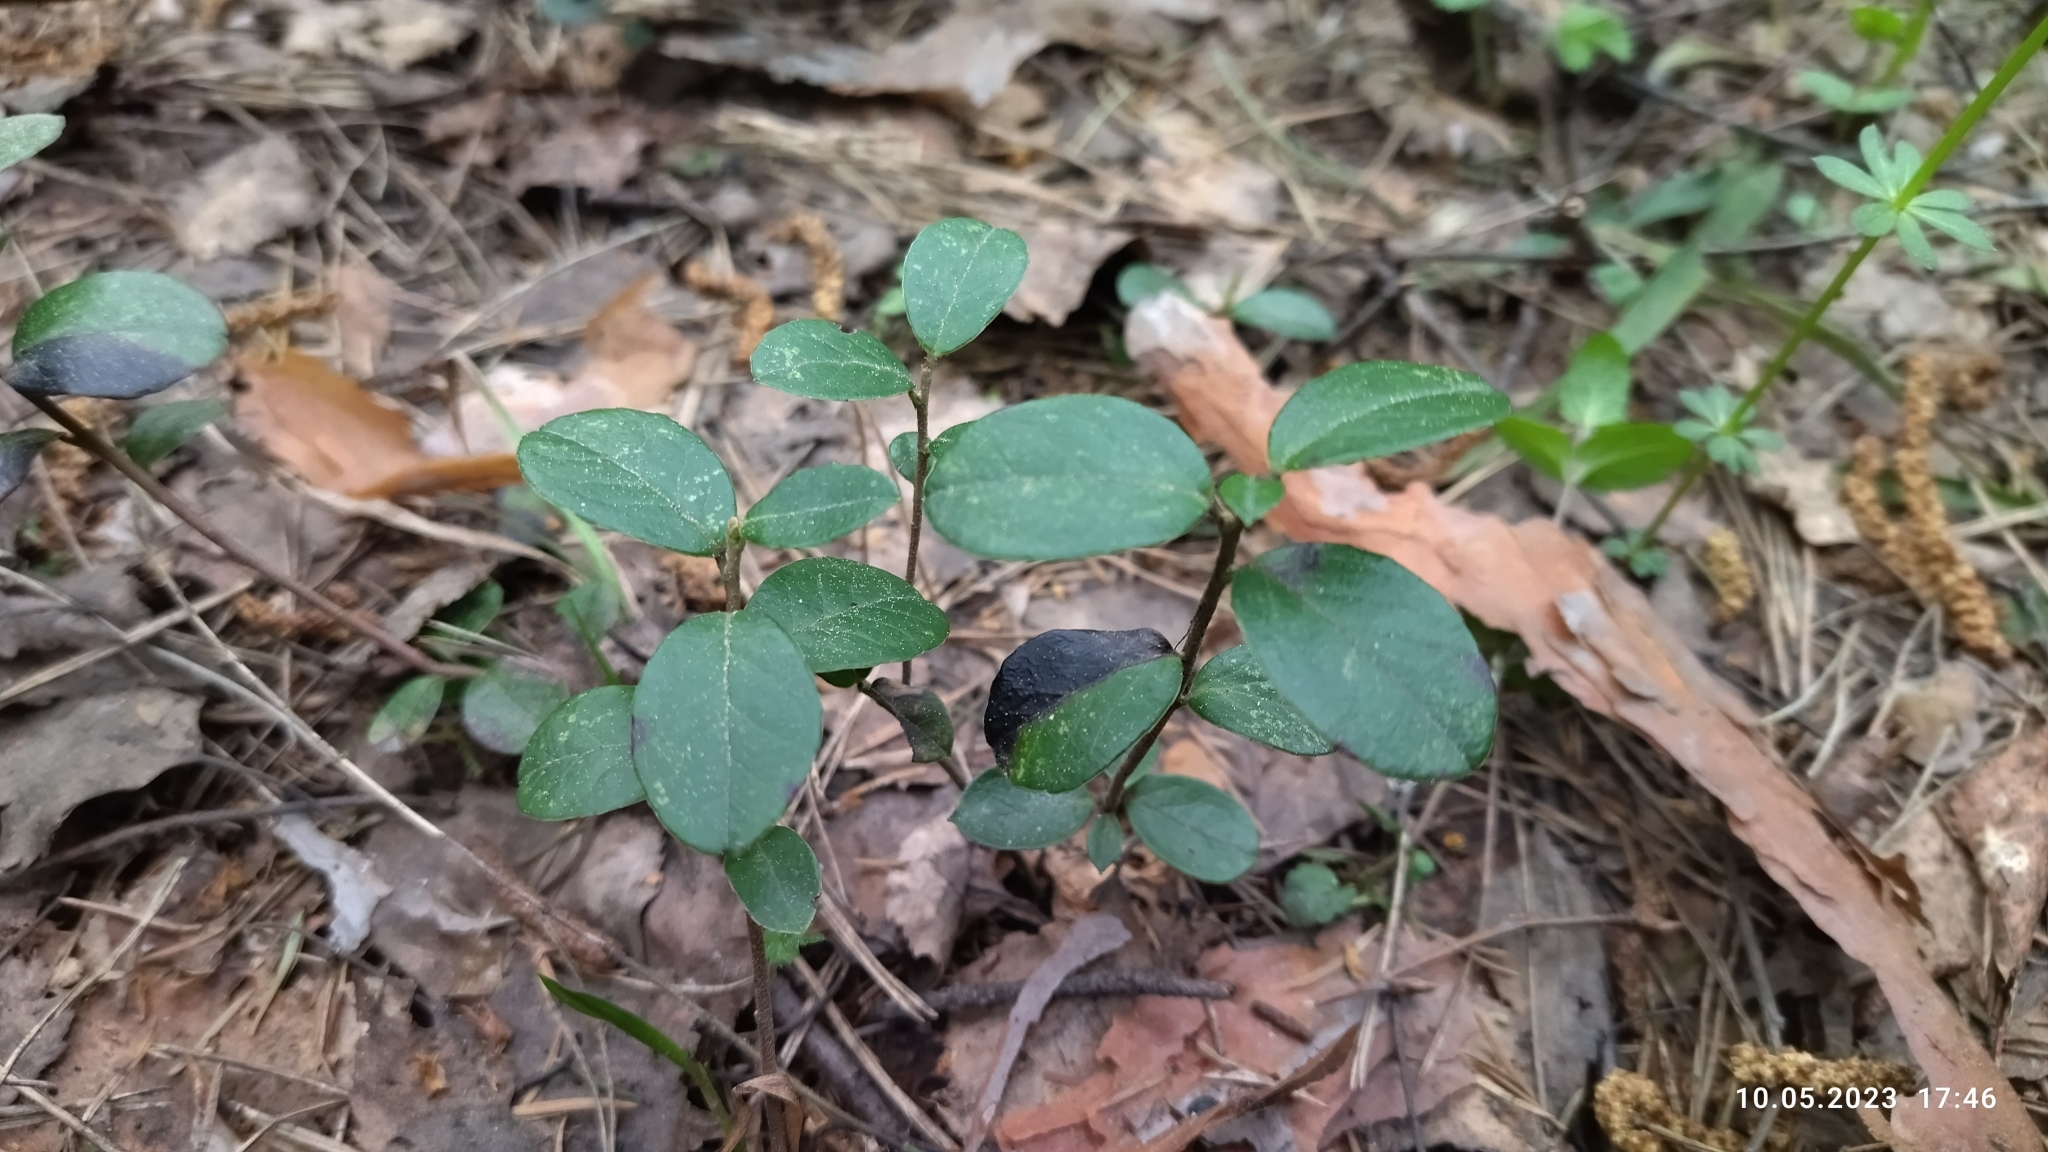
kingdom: Plantae
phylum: Tracheophyta
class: Magnoliopsida
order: Ericales
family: Ericaceae
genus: Vaccinium
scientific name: Vaccinium vitis-idaea
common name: Cowberry
